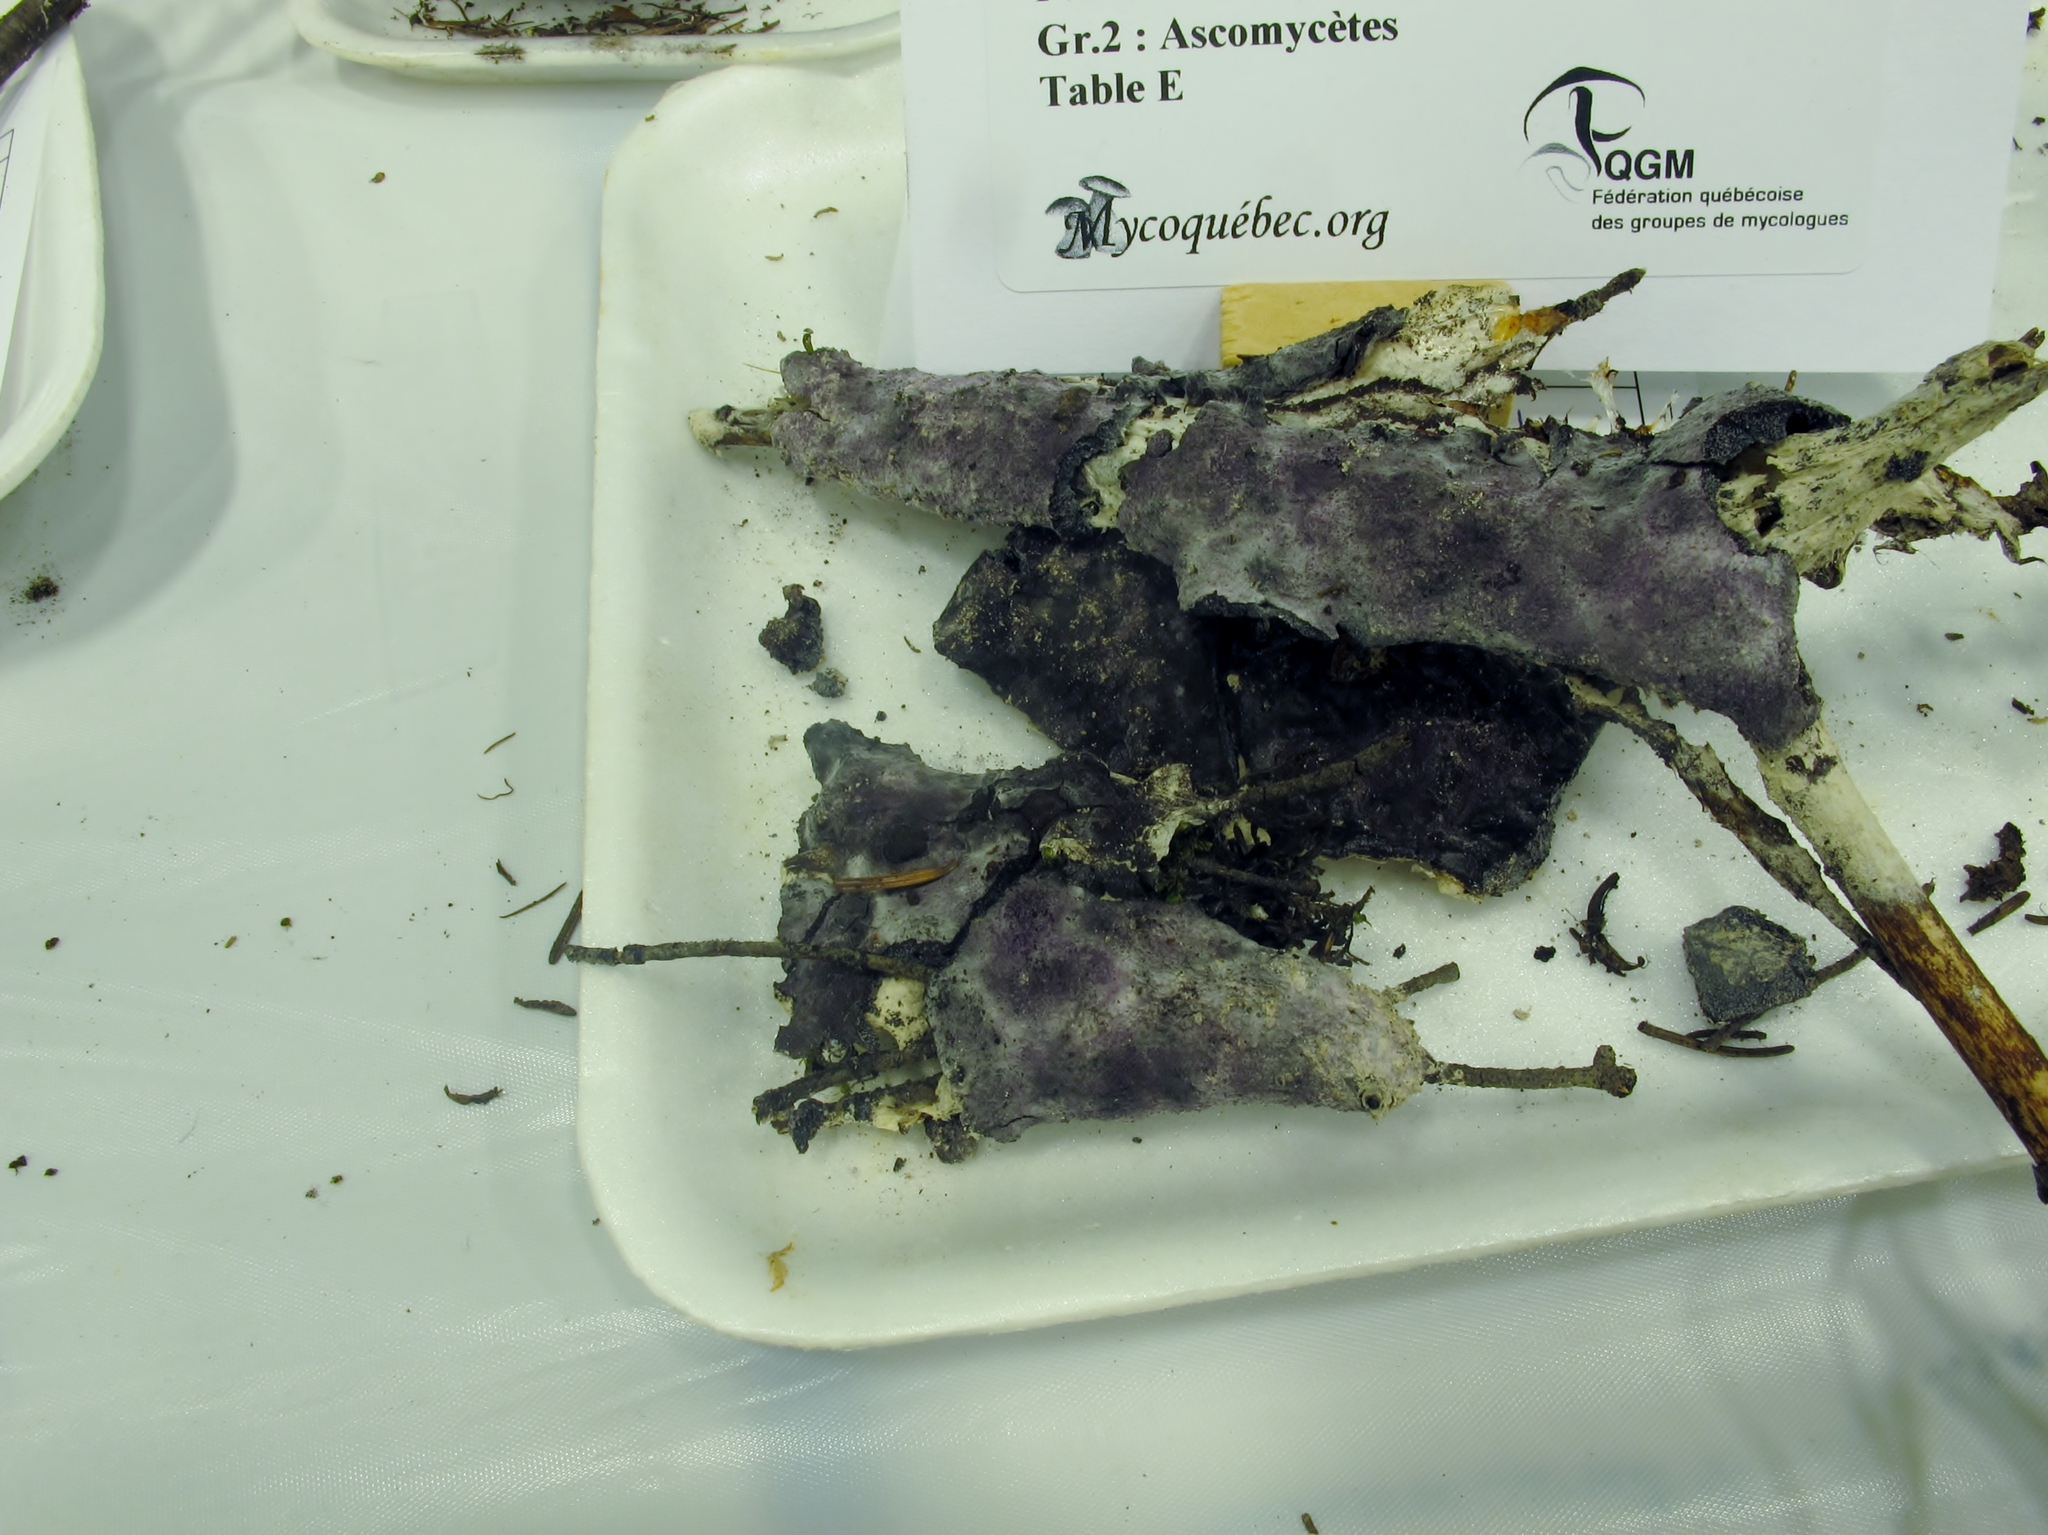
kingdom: Fungi
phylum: Ascomycota
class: Sordariomycetes
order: Hypocreales
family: Bionectriaceae
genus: Nectriopsis
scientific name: Nectriopsis violacea
